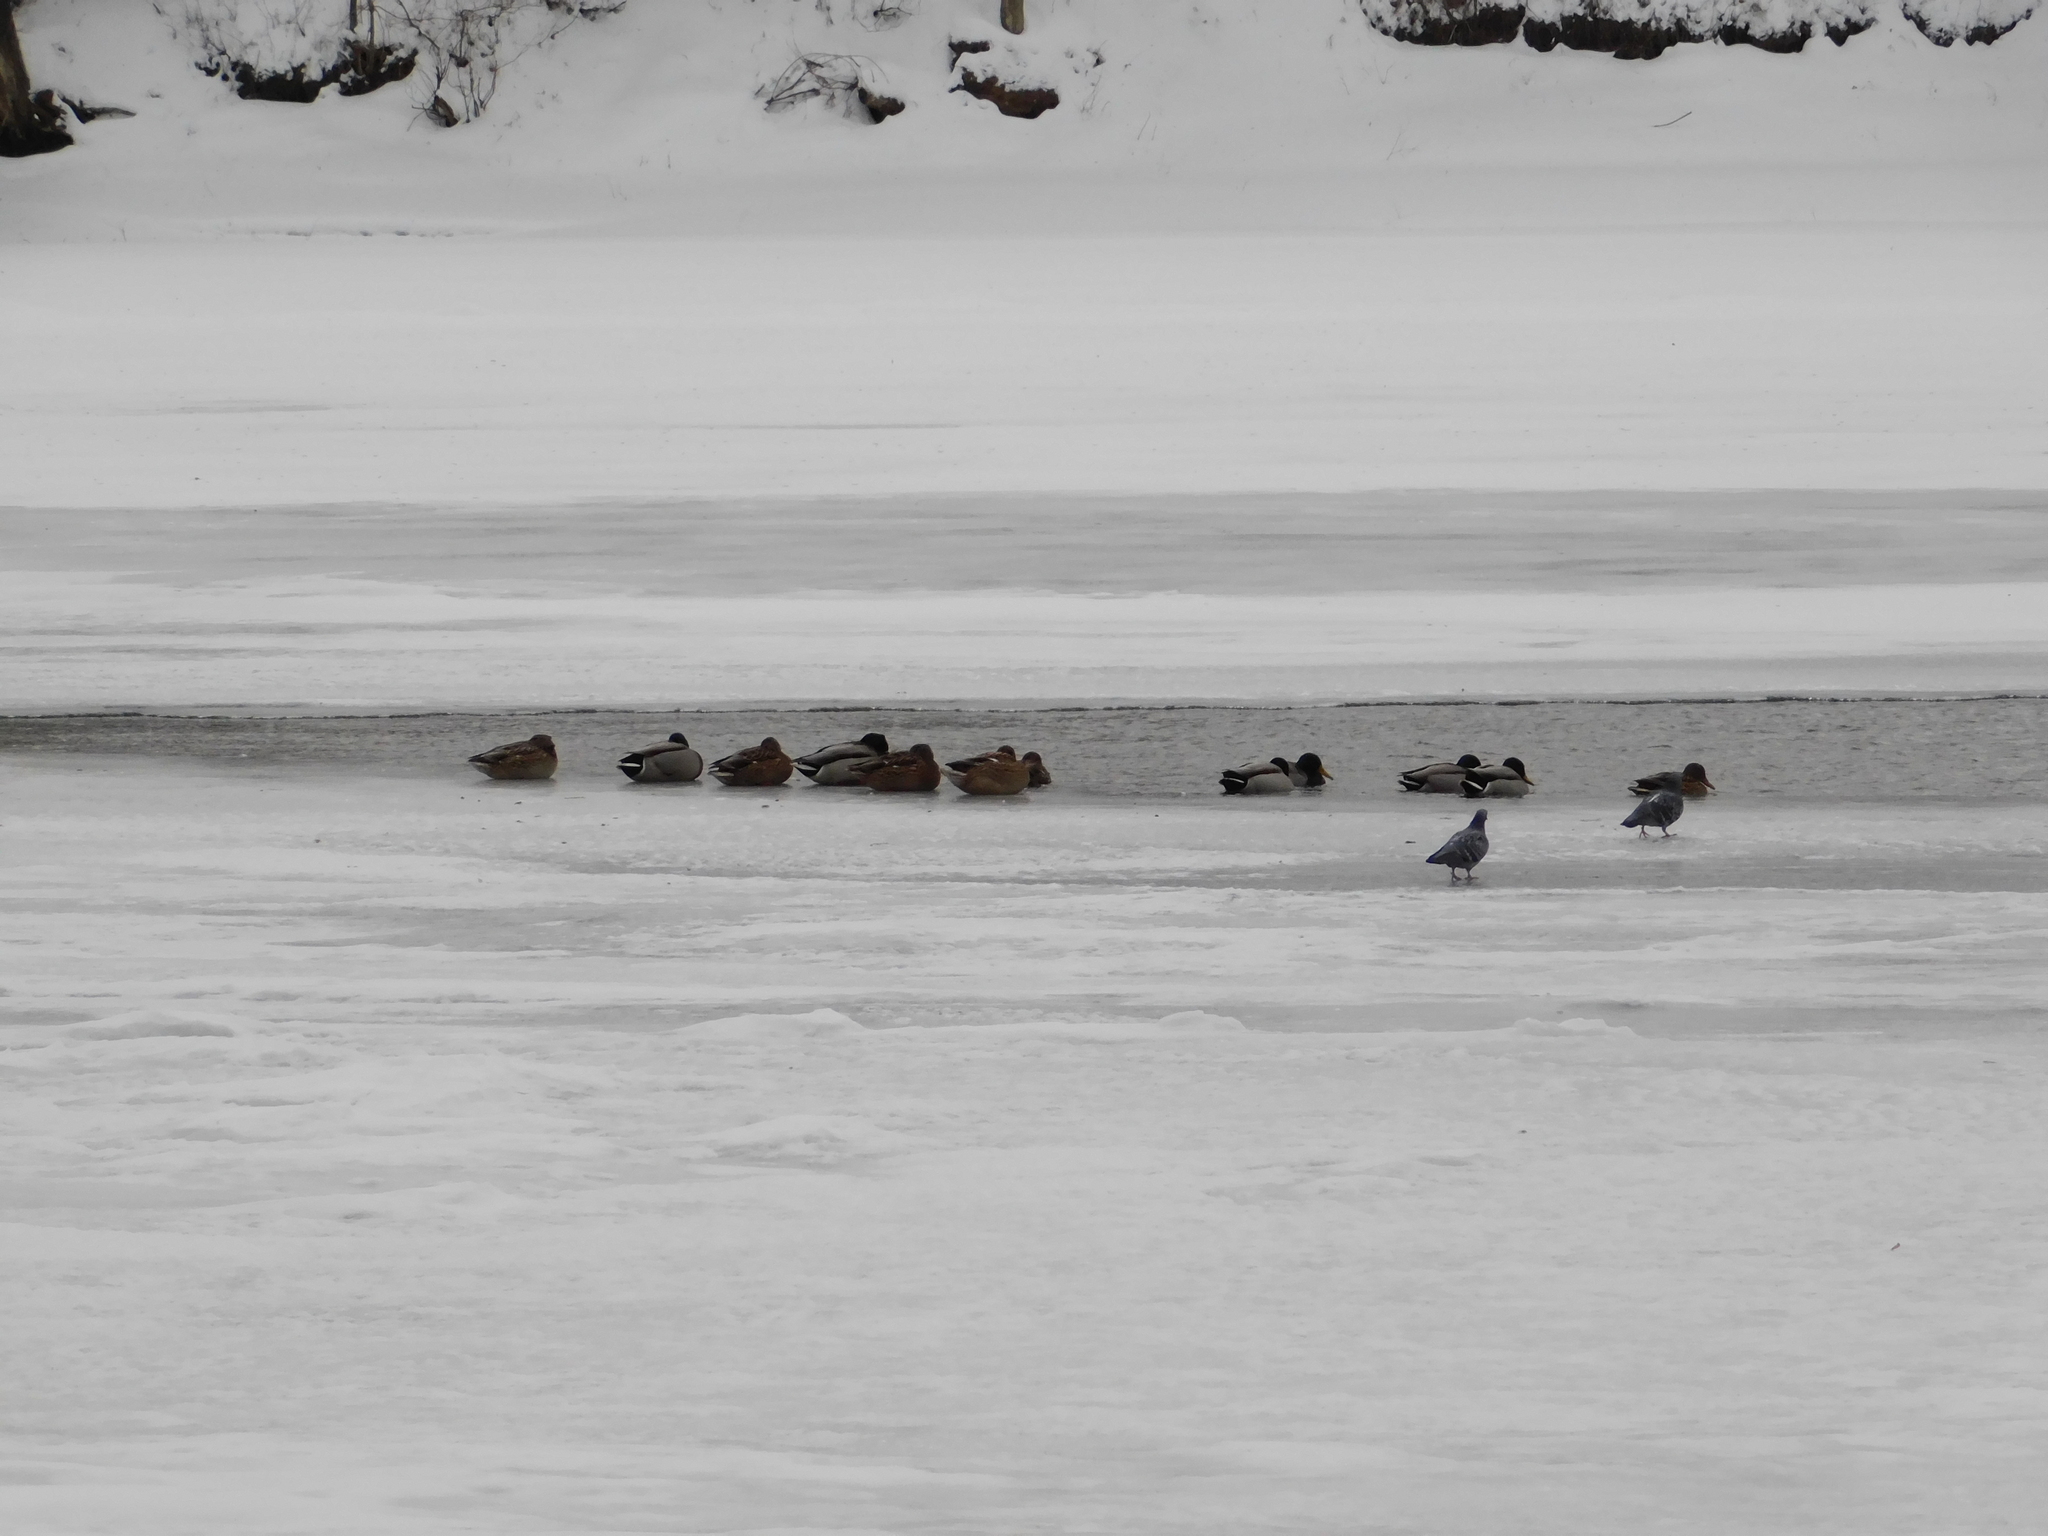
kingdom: Animalia
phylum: Chordata
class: Aves
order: Anseriformes
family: Anatidae
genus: Anas
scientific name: Anas platyrhynchos
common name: Mallard
